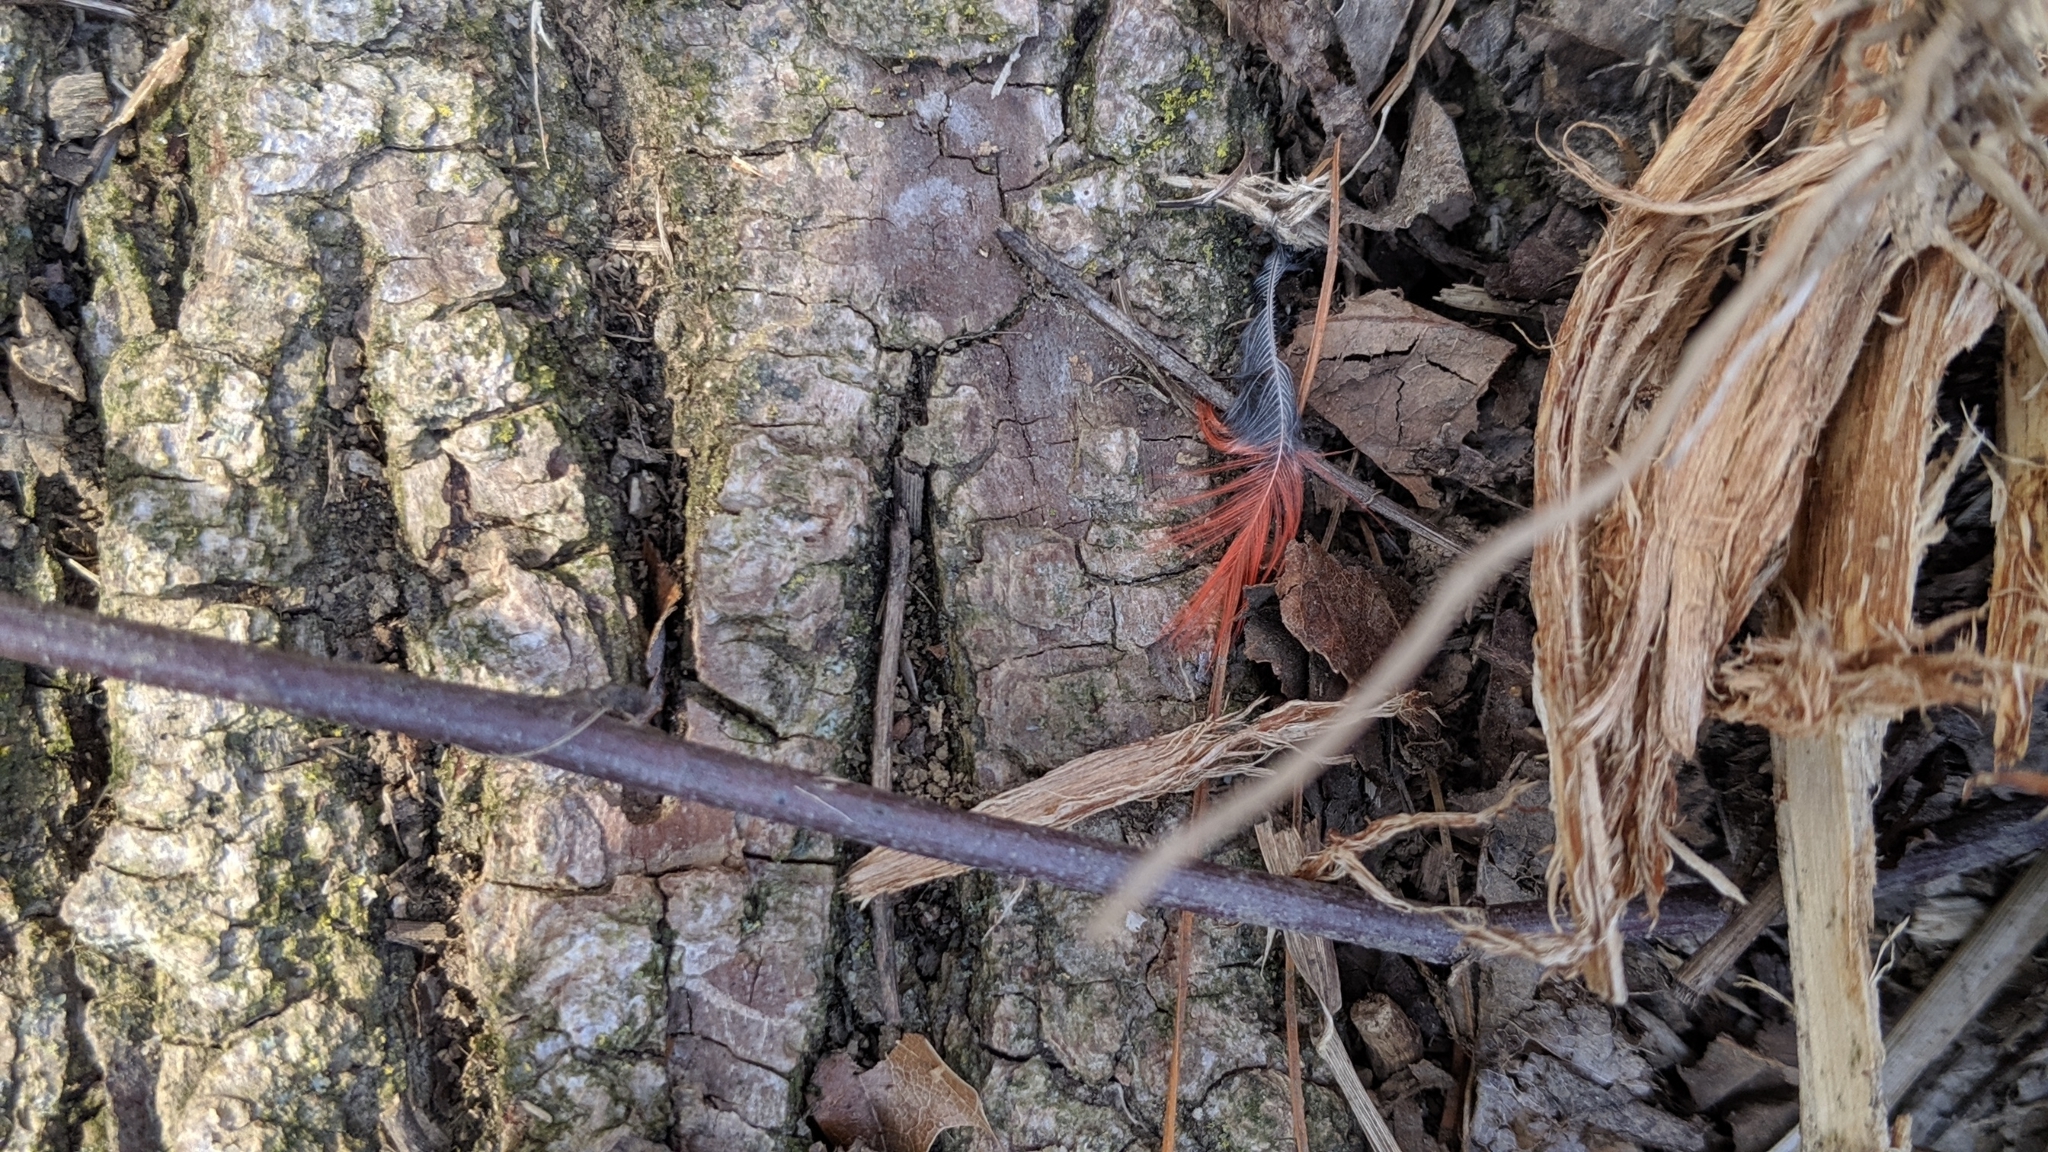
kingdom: Animalia
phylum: Chordata
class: Aves
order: Passeriformes
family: Cardinalidae
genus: Cardinalis
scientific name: Cardinalis cardinalis
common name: Northern cardinal
